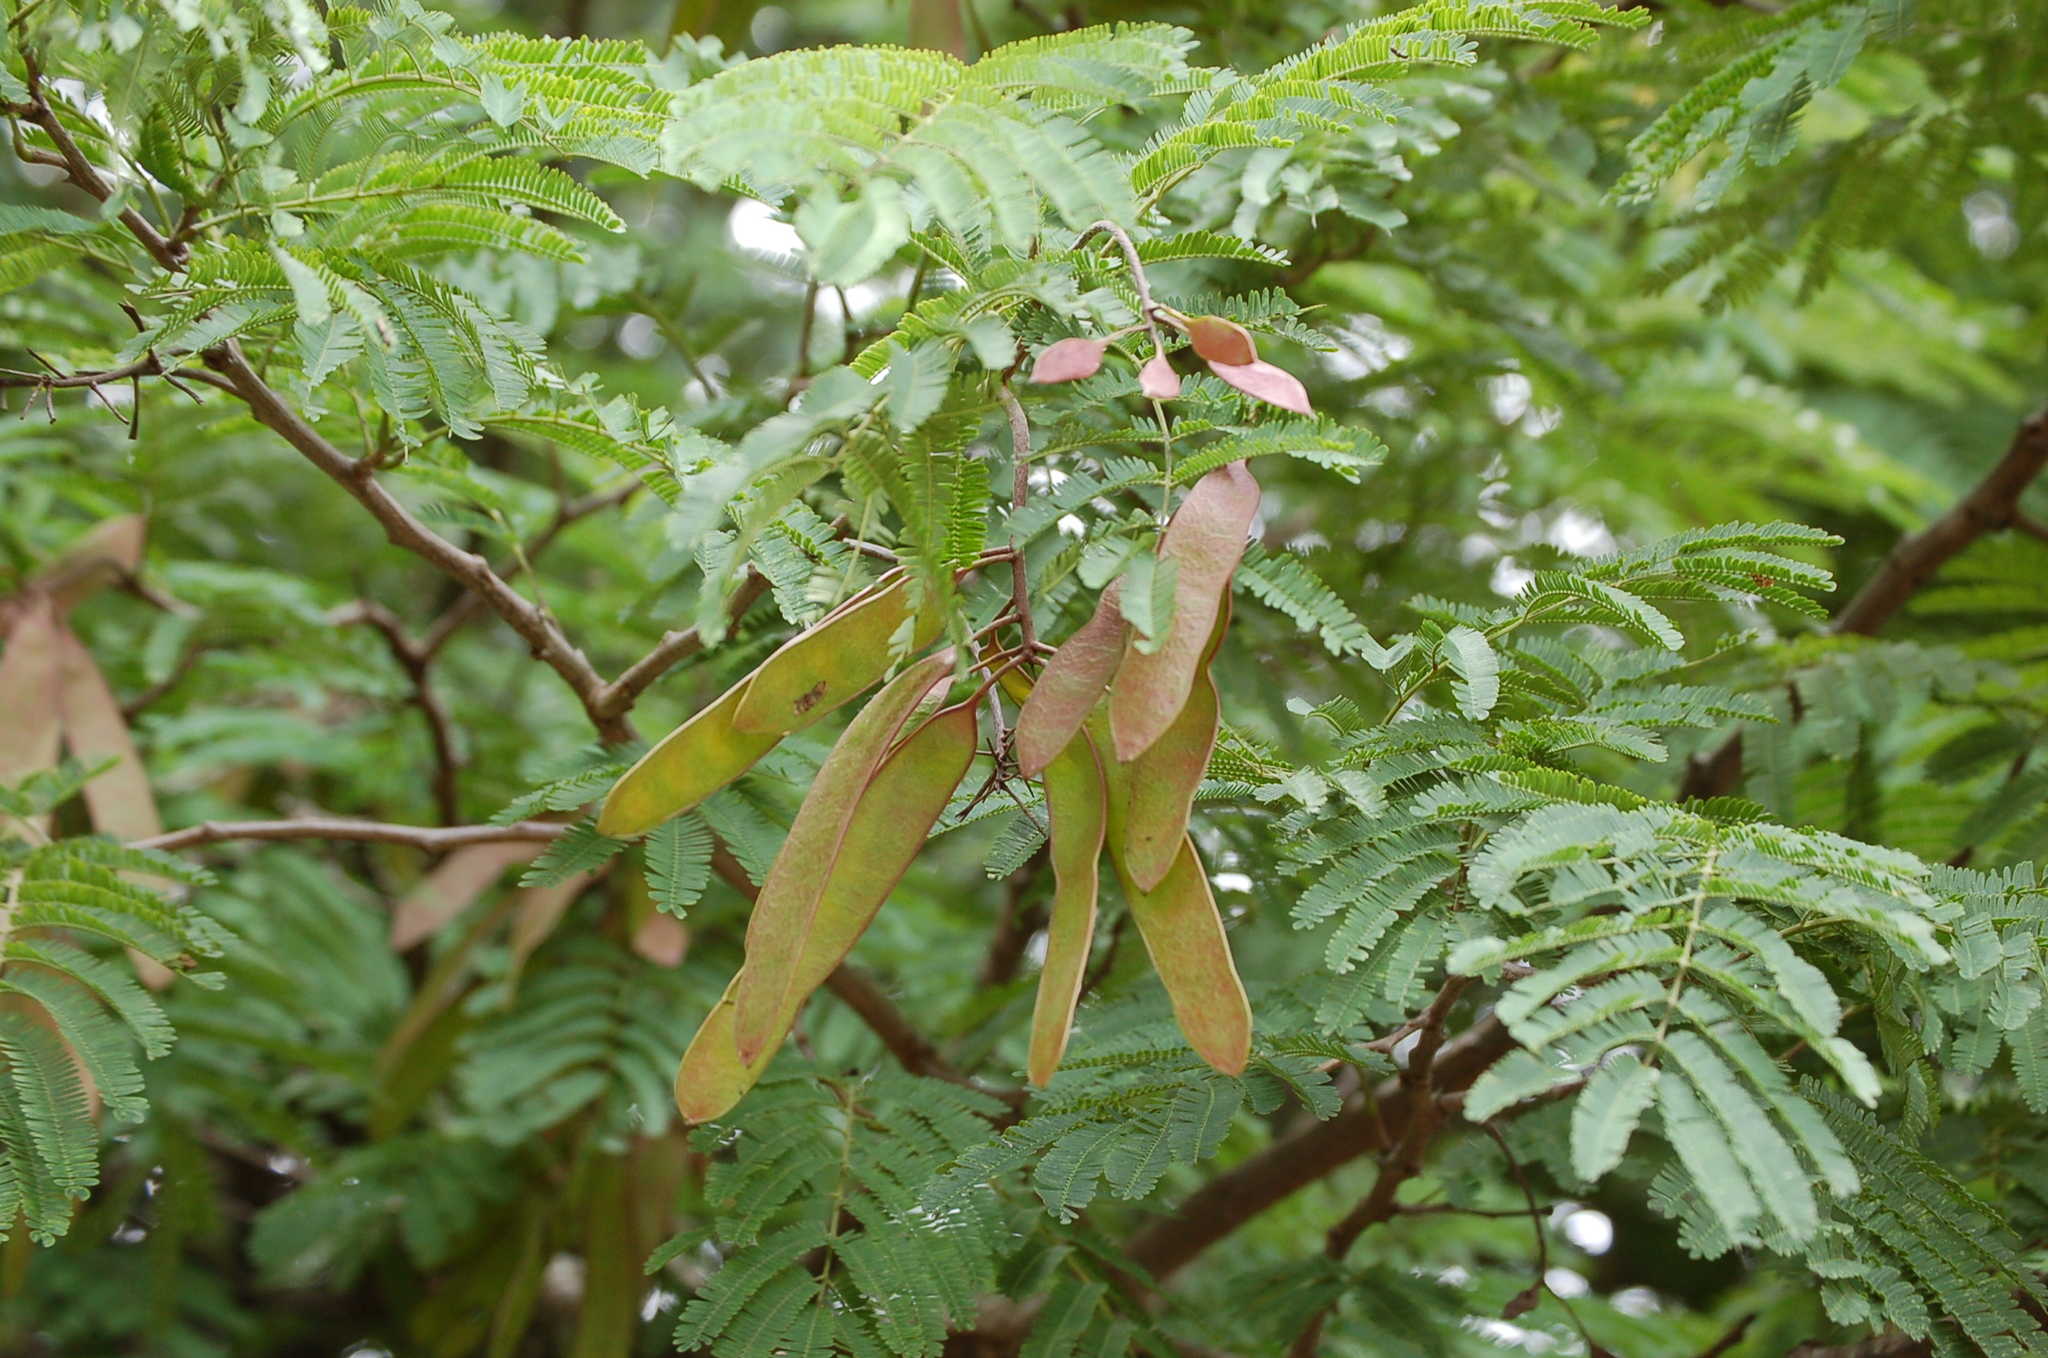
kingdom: Plantae
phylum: Tracheophyta
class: Magnoliopsida
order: Fabales
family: Fabaceae
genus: Lysiloma
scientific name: Lysiloma divaricatum
